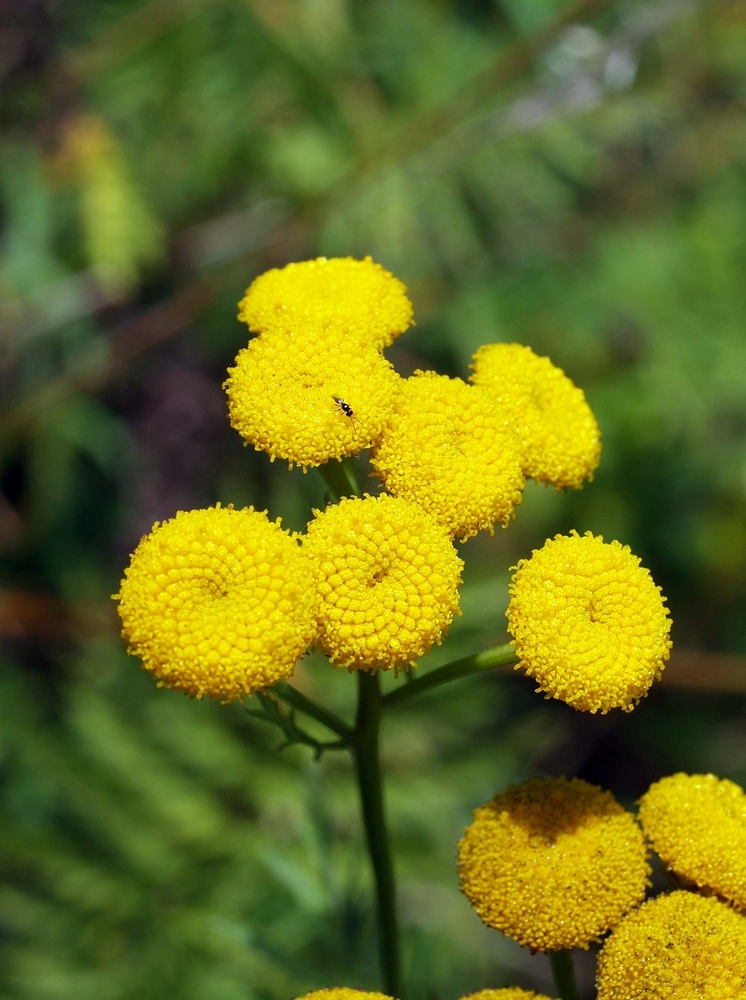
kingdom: Plantae
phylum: Tracheophyta
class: Magnoliopsida
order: Asterales
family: Asteraceae
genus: Tanacetum
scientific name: Tanacetum vulgare
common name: Common tansy
